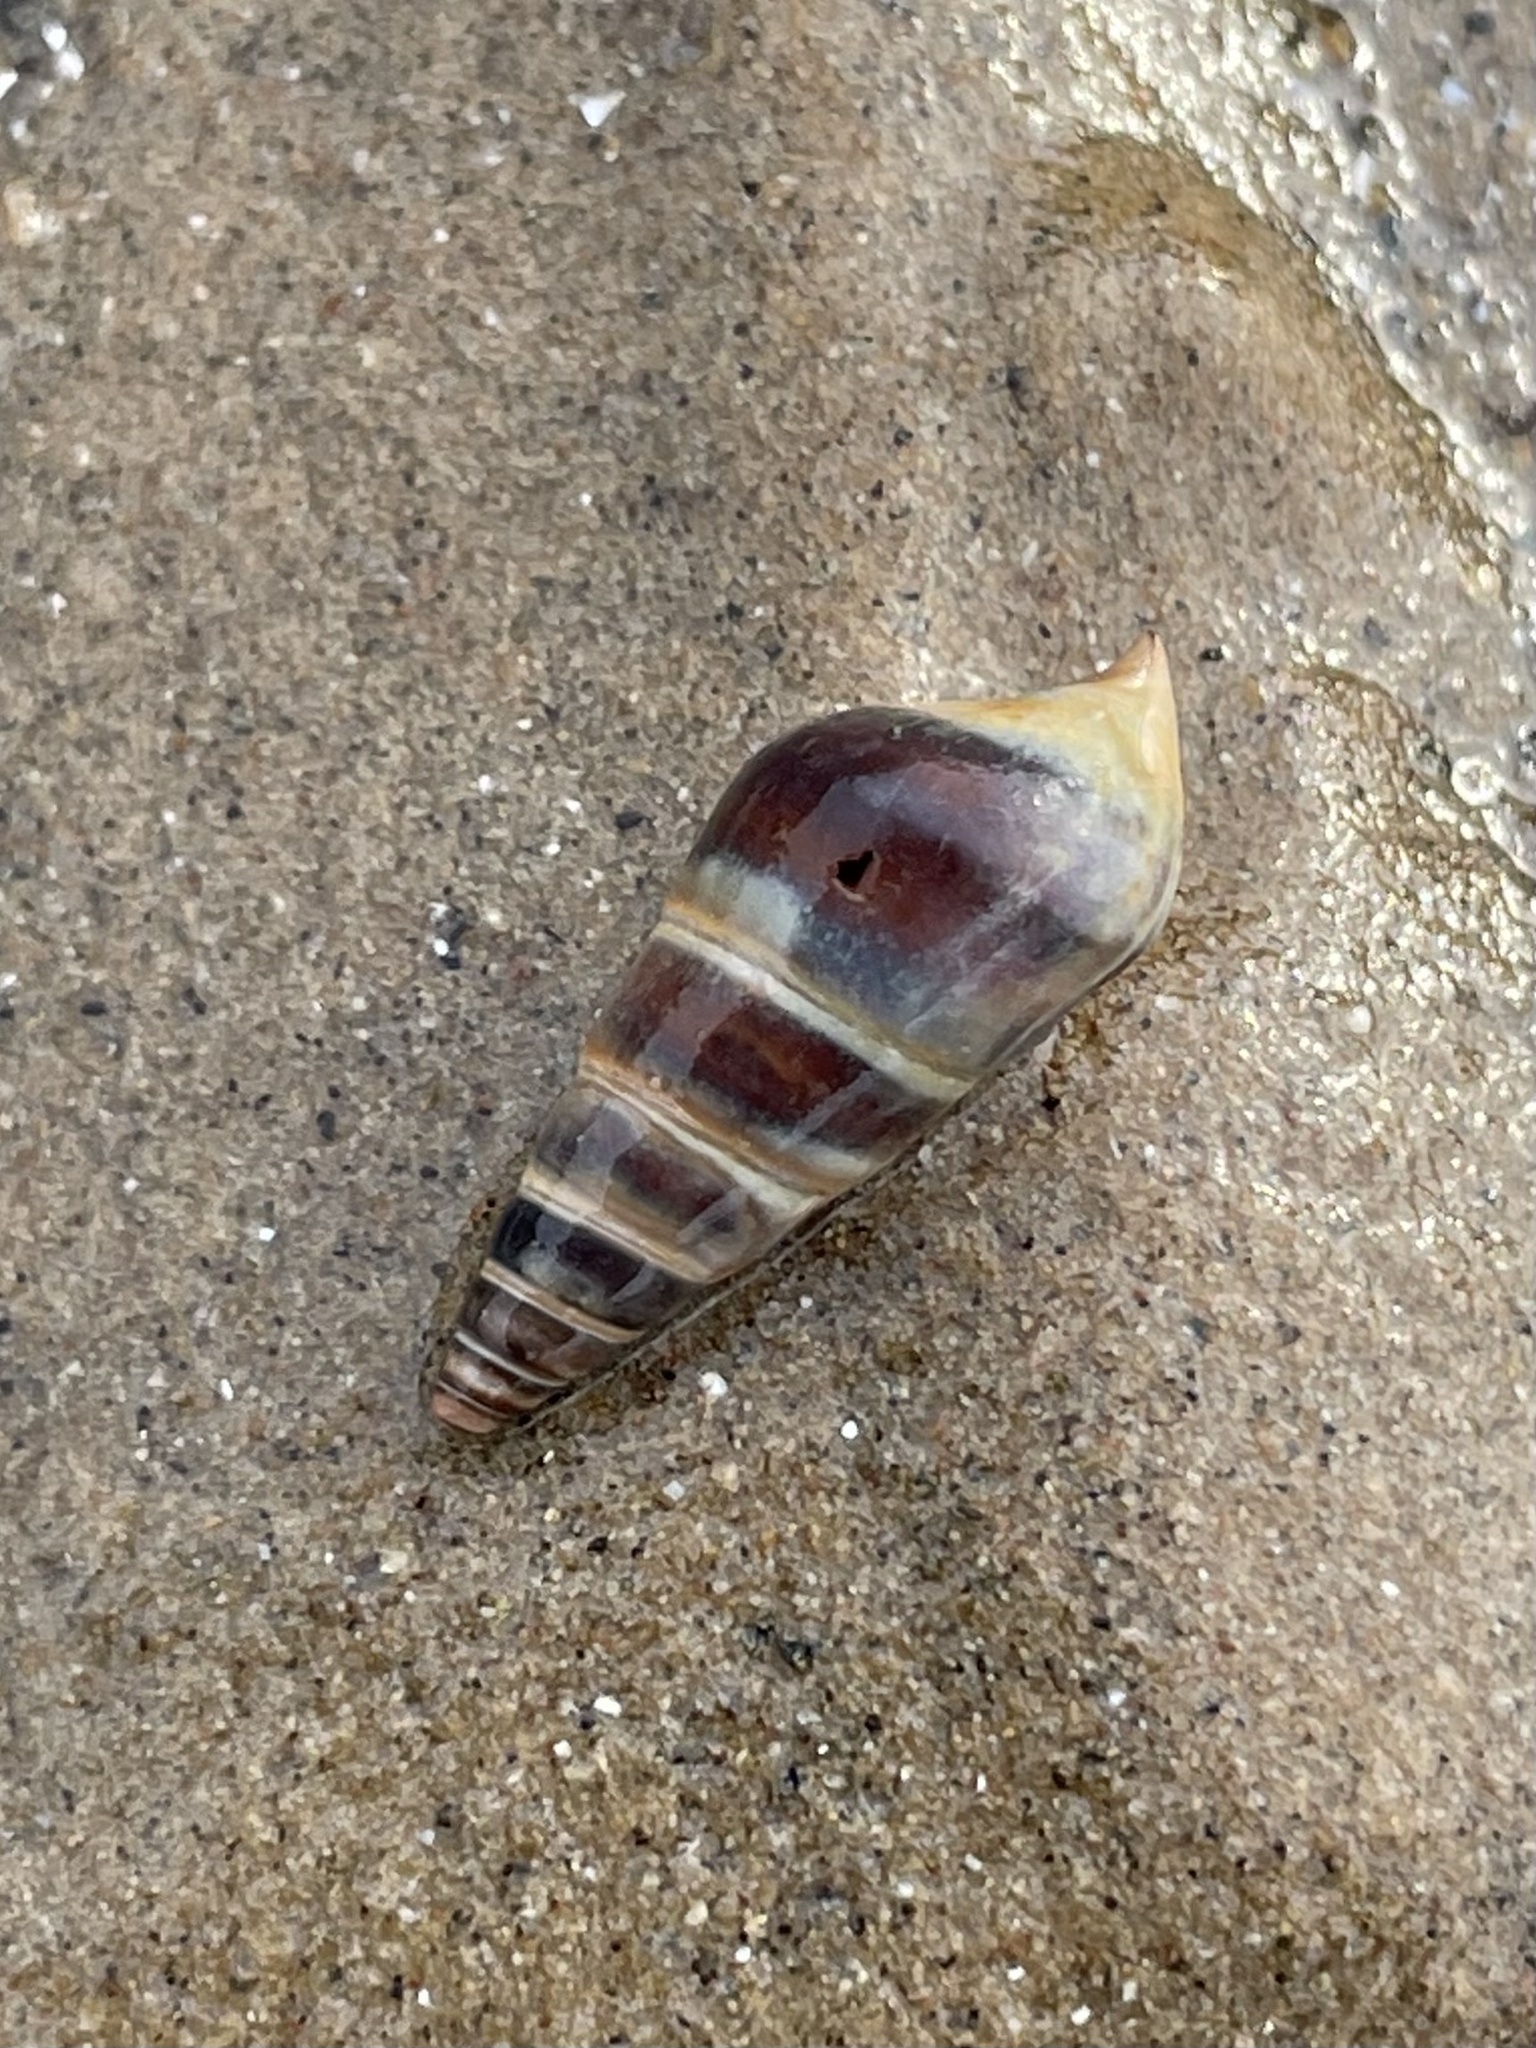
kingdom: Animalia
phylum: Mollusca
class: Gastropoda
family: Pleuroceridae
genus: Pleurocera
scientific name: Pleurocera acuta
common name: Sharp hornsnail
